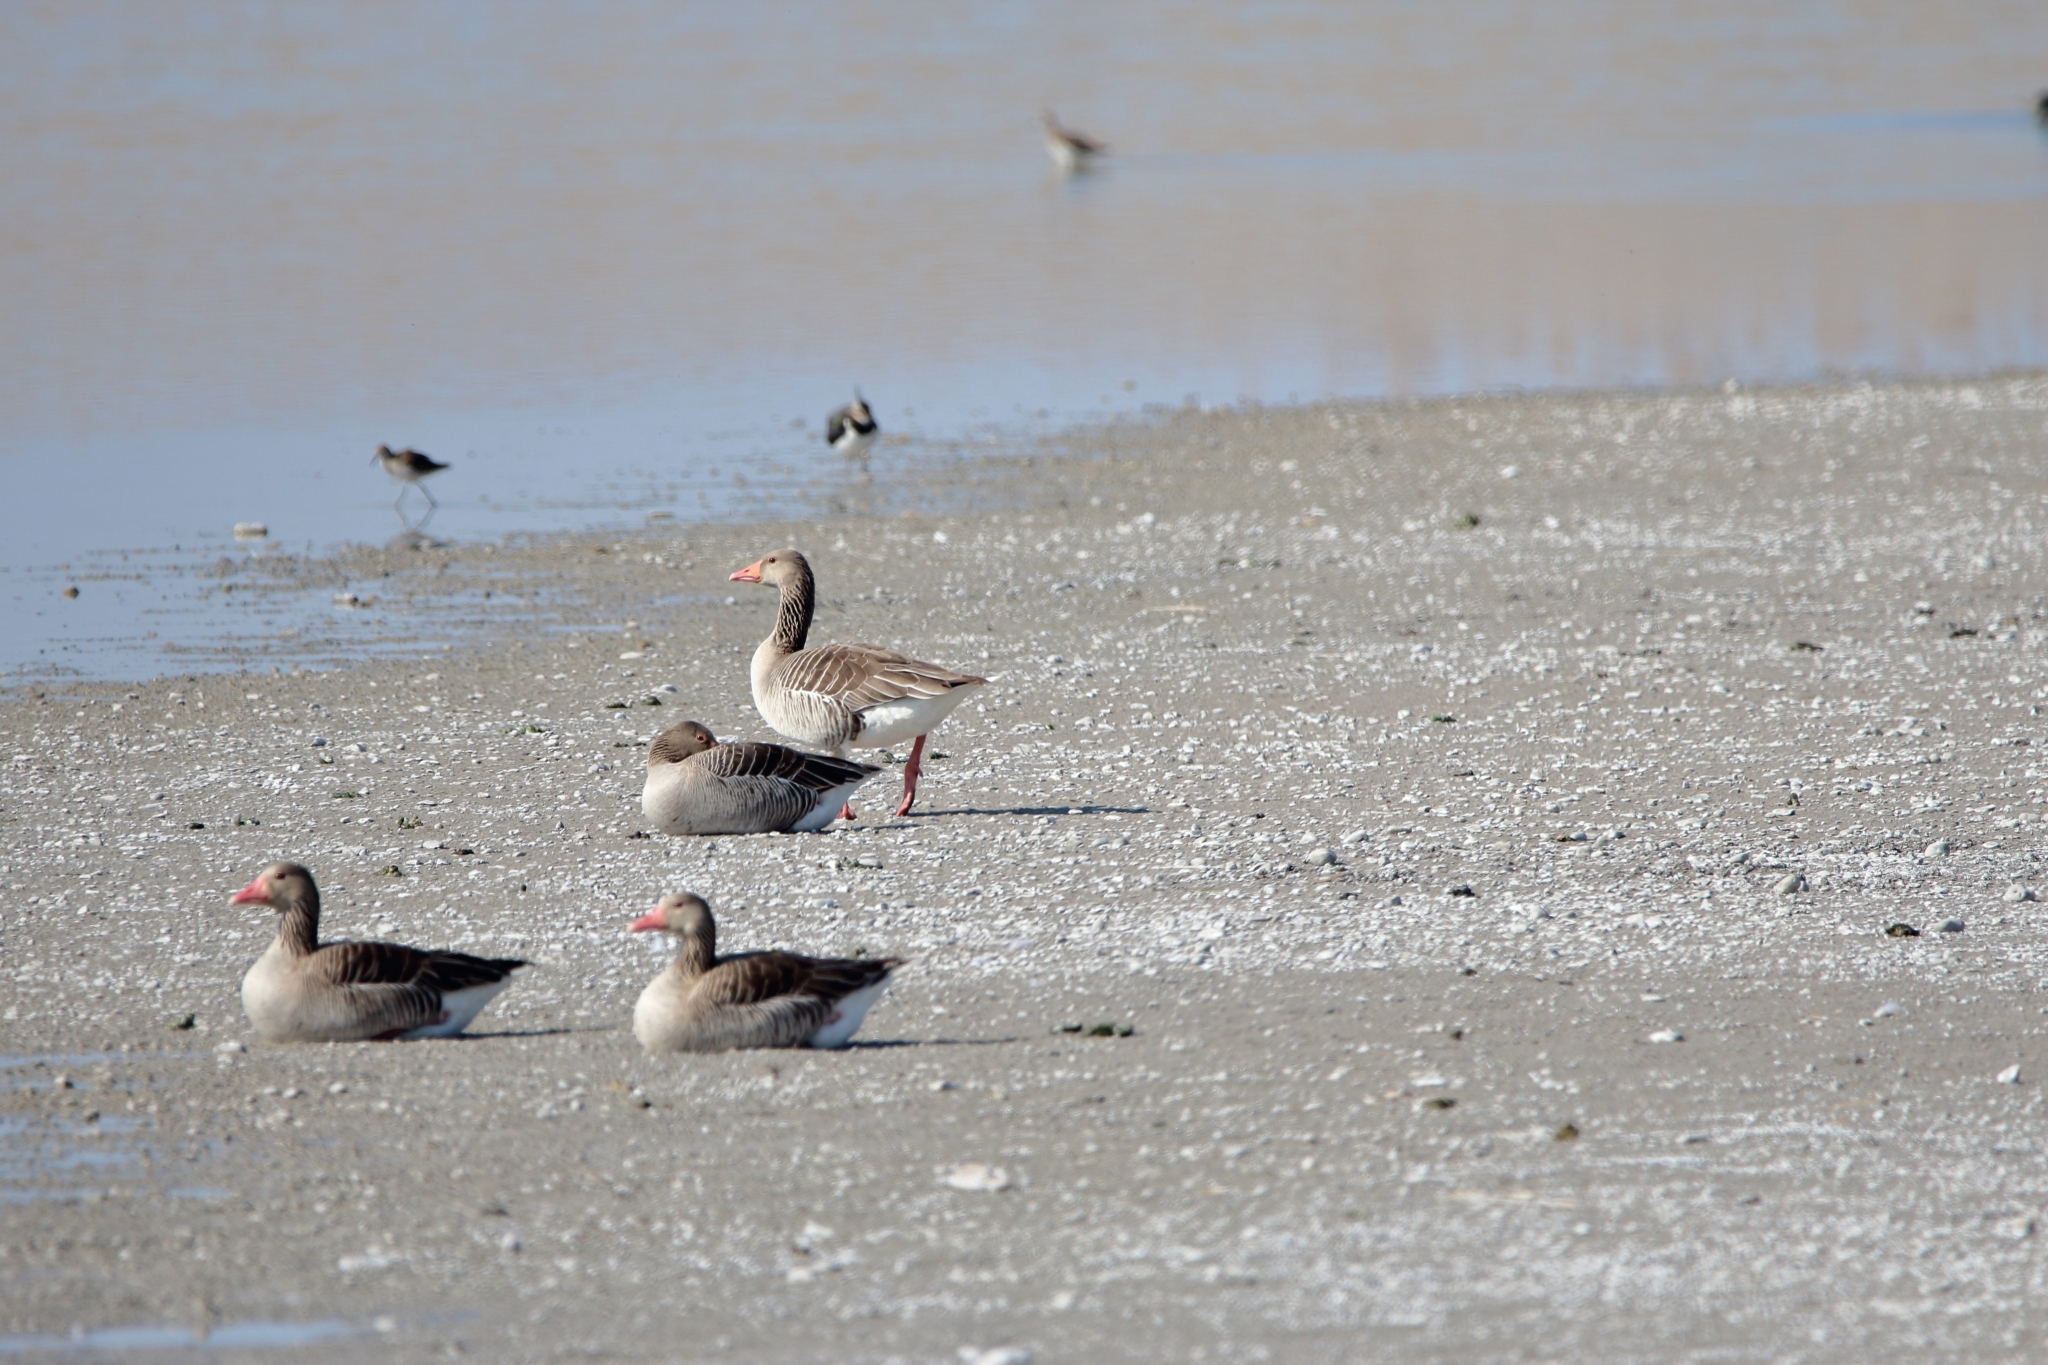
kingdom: Animalia
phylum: Chordata
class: Aves
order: Anseriformes
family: Anatidae
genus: Anser
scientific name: Anser anser
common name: Greylag goose
